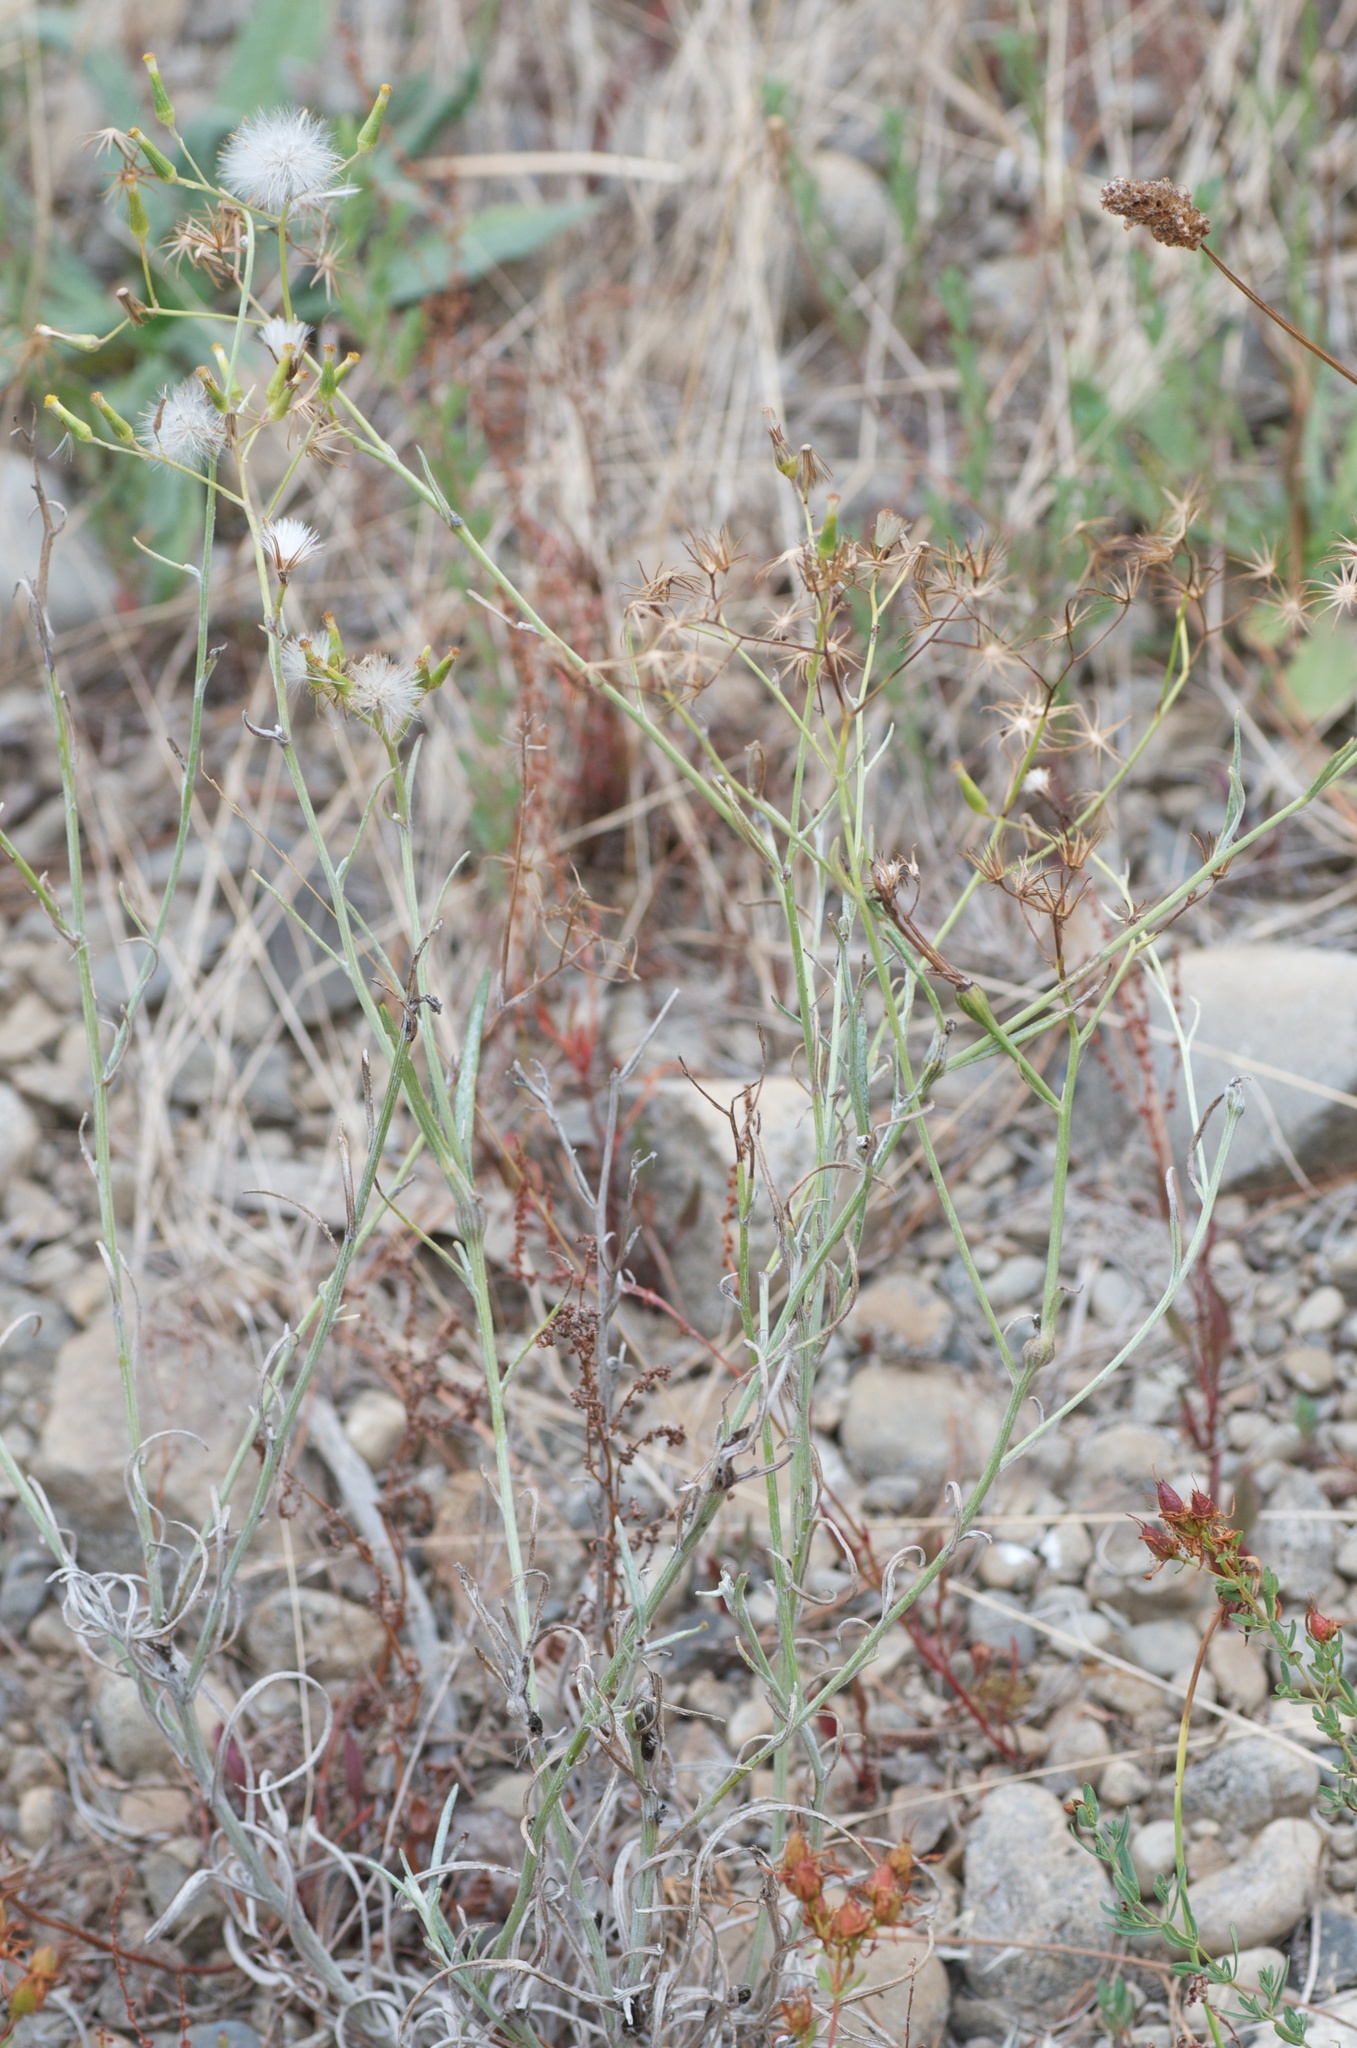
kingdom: Plantae
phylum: Tracheophyta
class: Magnoliopsida
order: Asterales
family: Asteraceae
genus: Senecio
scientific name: Senecio quadridentatus
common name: Cotton fireweed
